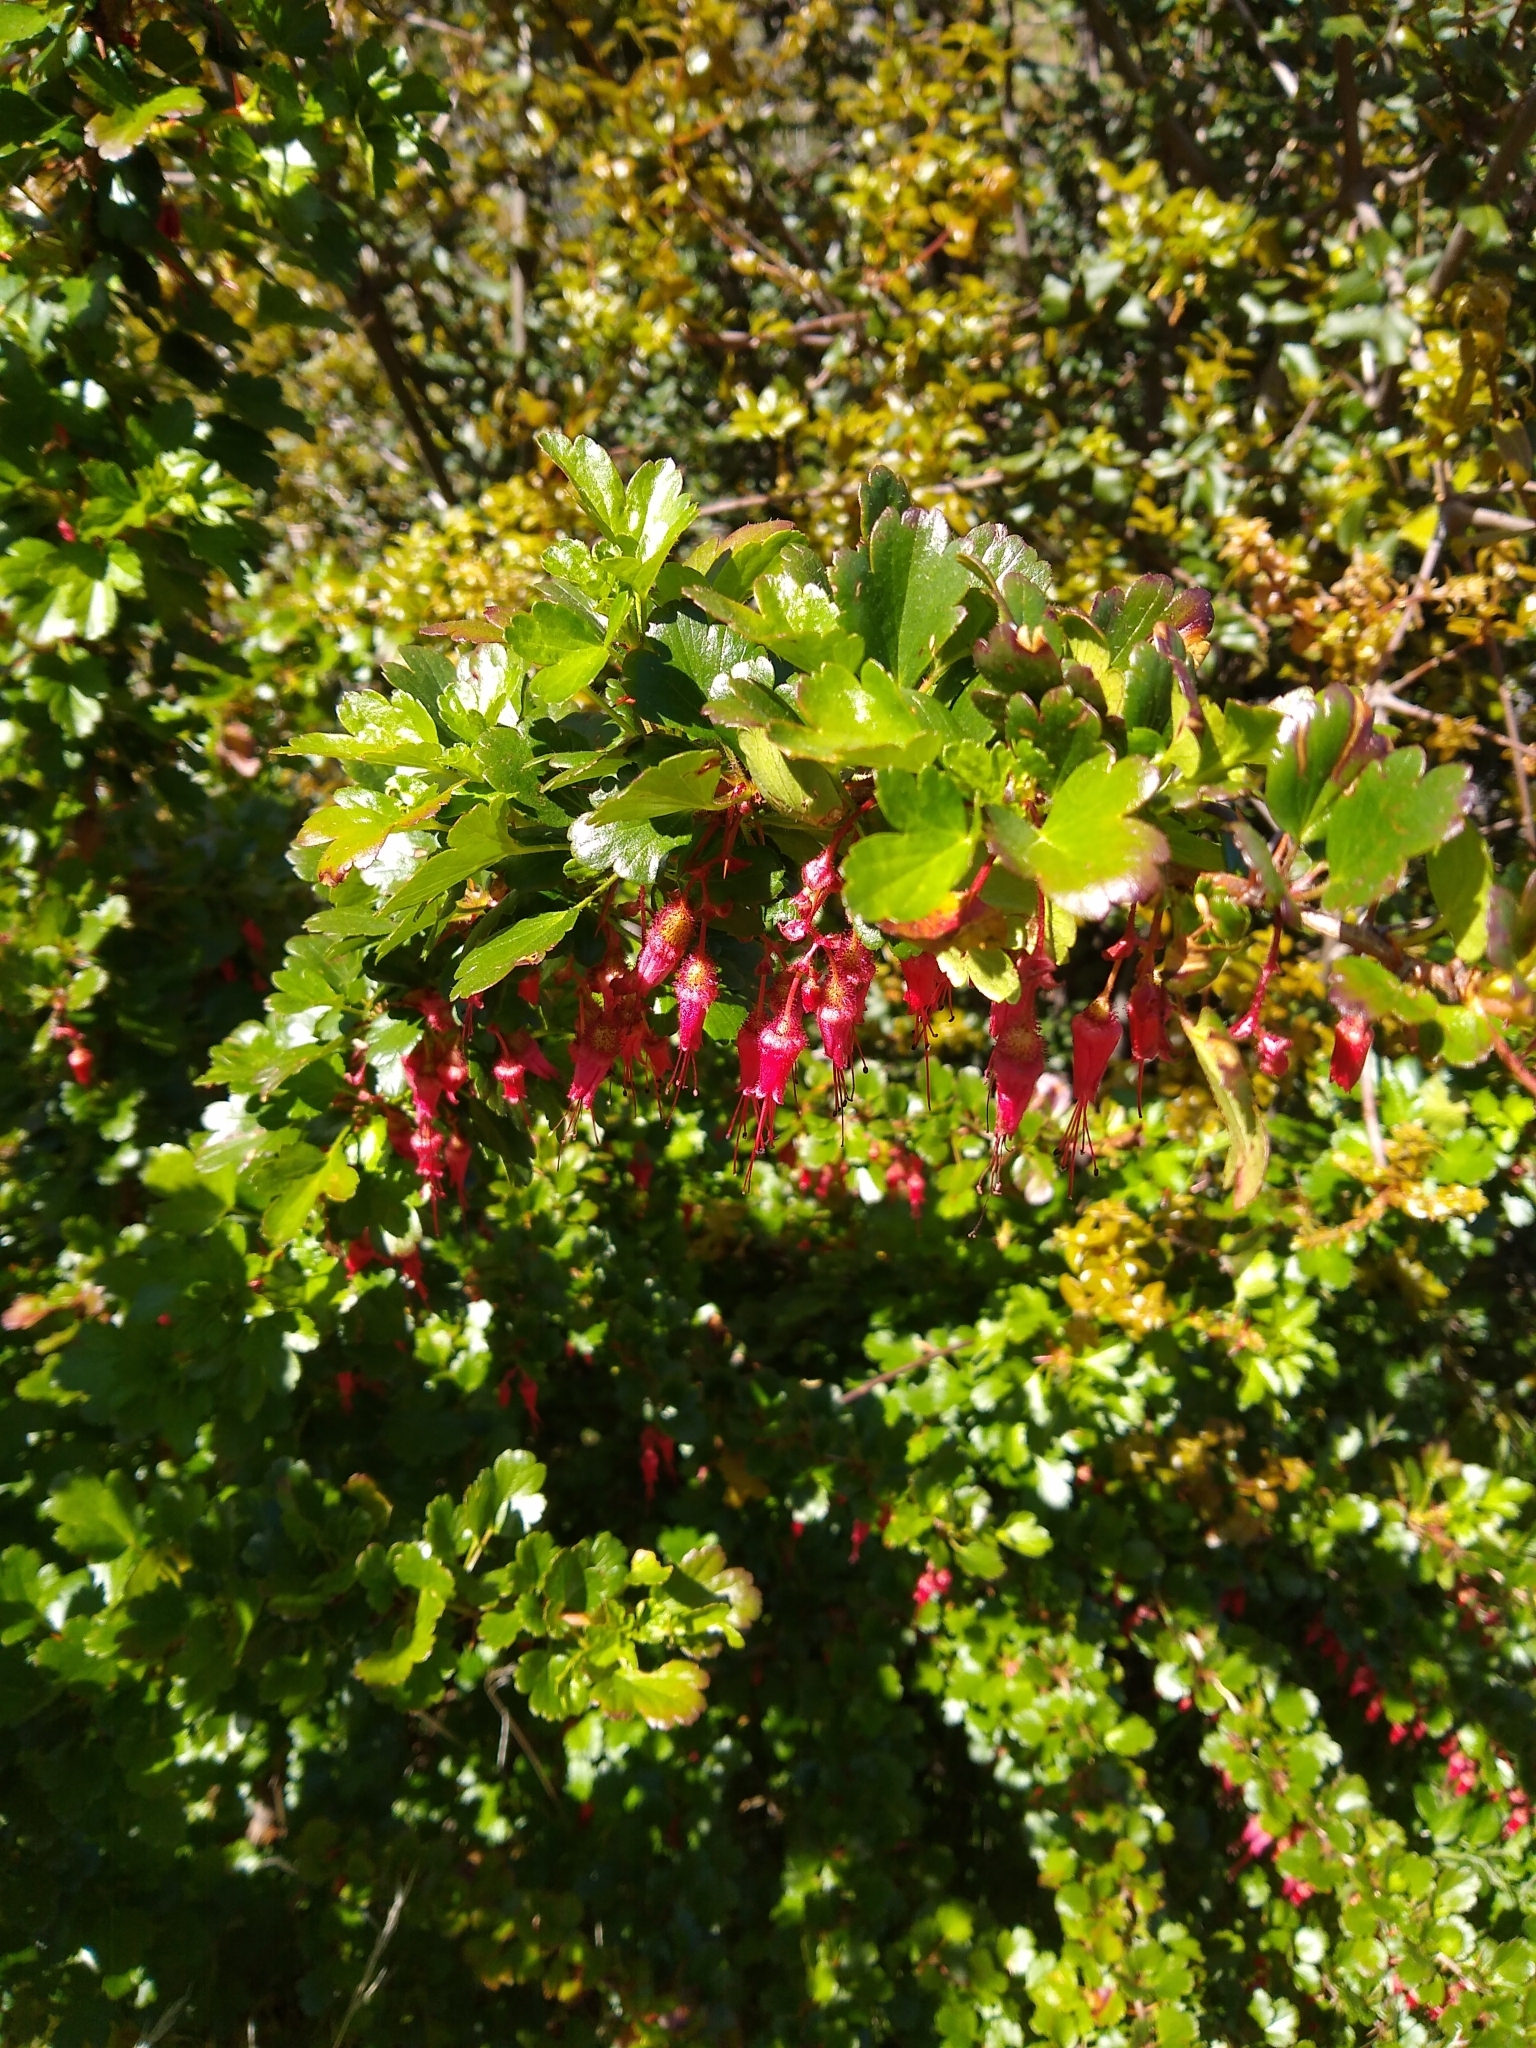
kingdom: Plantae
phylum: Tracheophyta
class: Magnoliopsida
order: Saxifragales
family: Grossulariaceae
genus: Ribes
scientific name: Ribes speciosum
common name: Fuchsia-flower gooseberry
